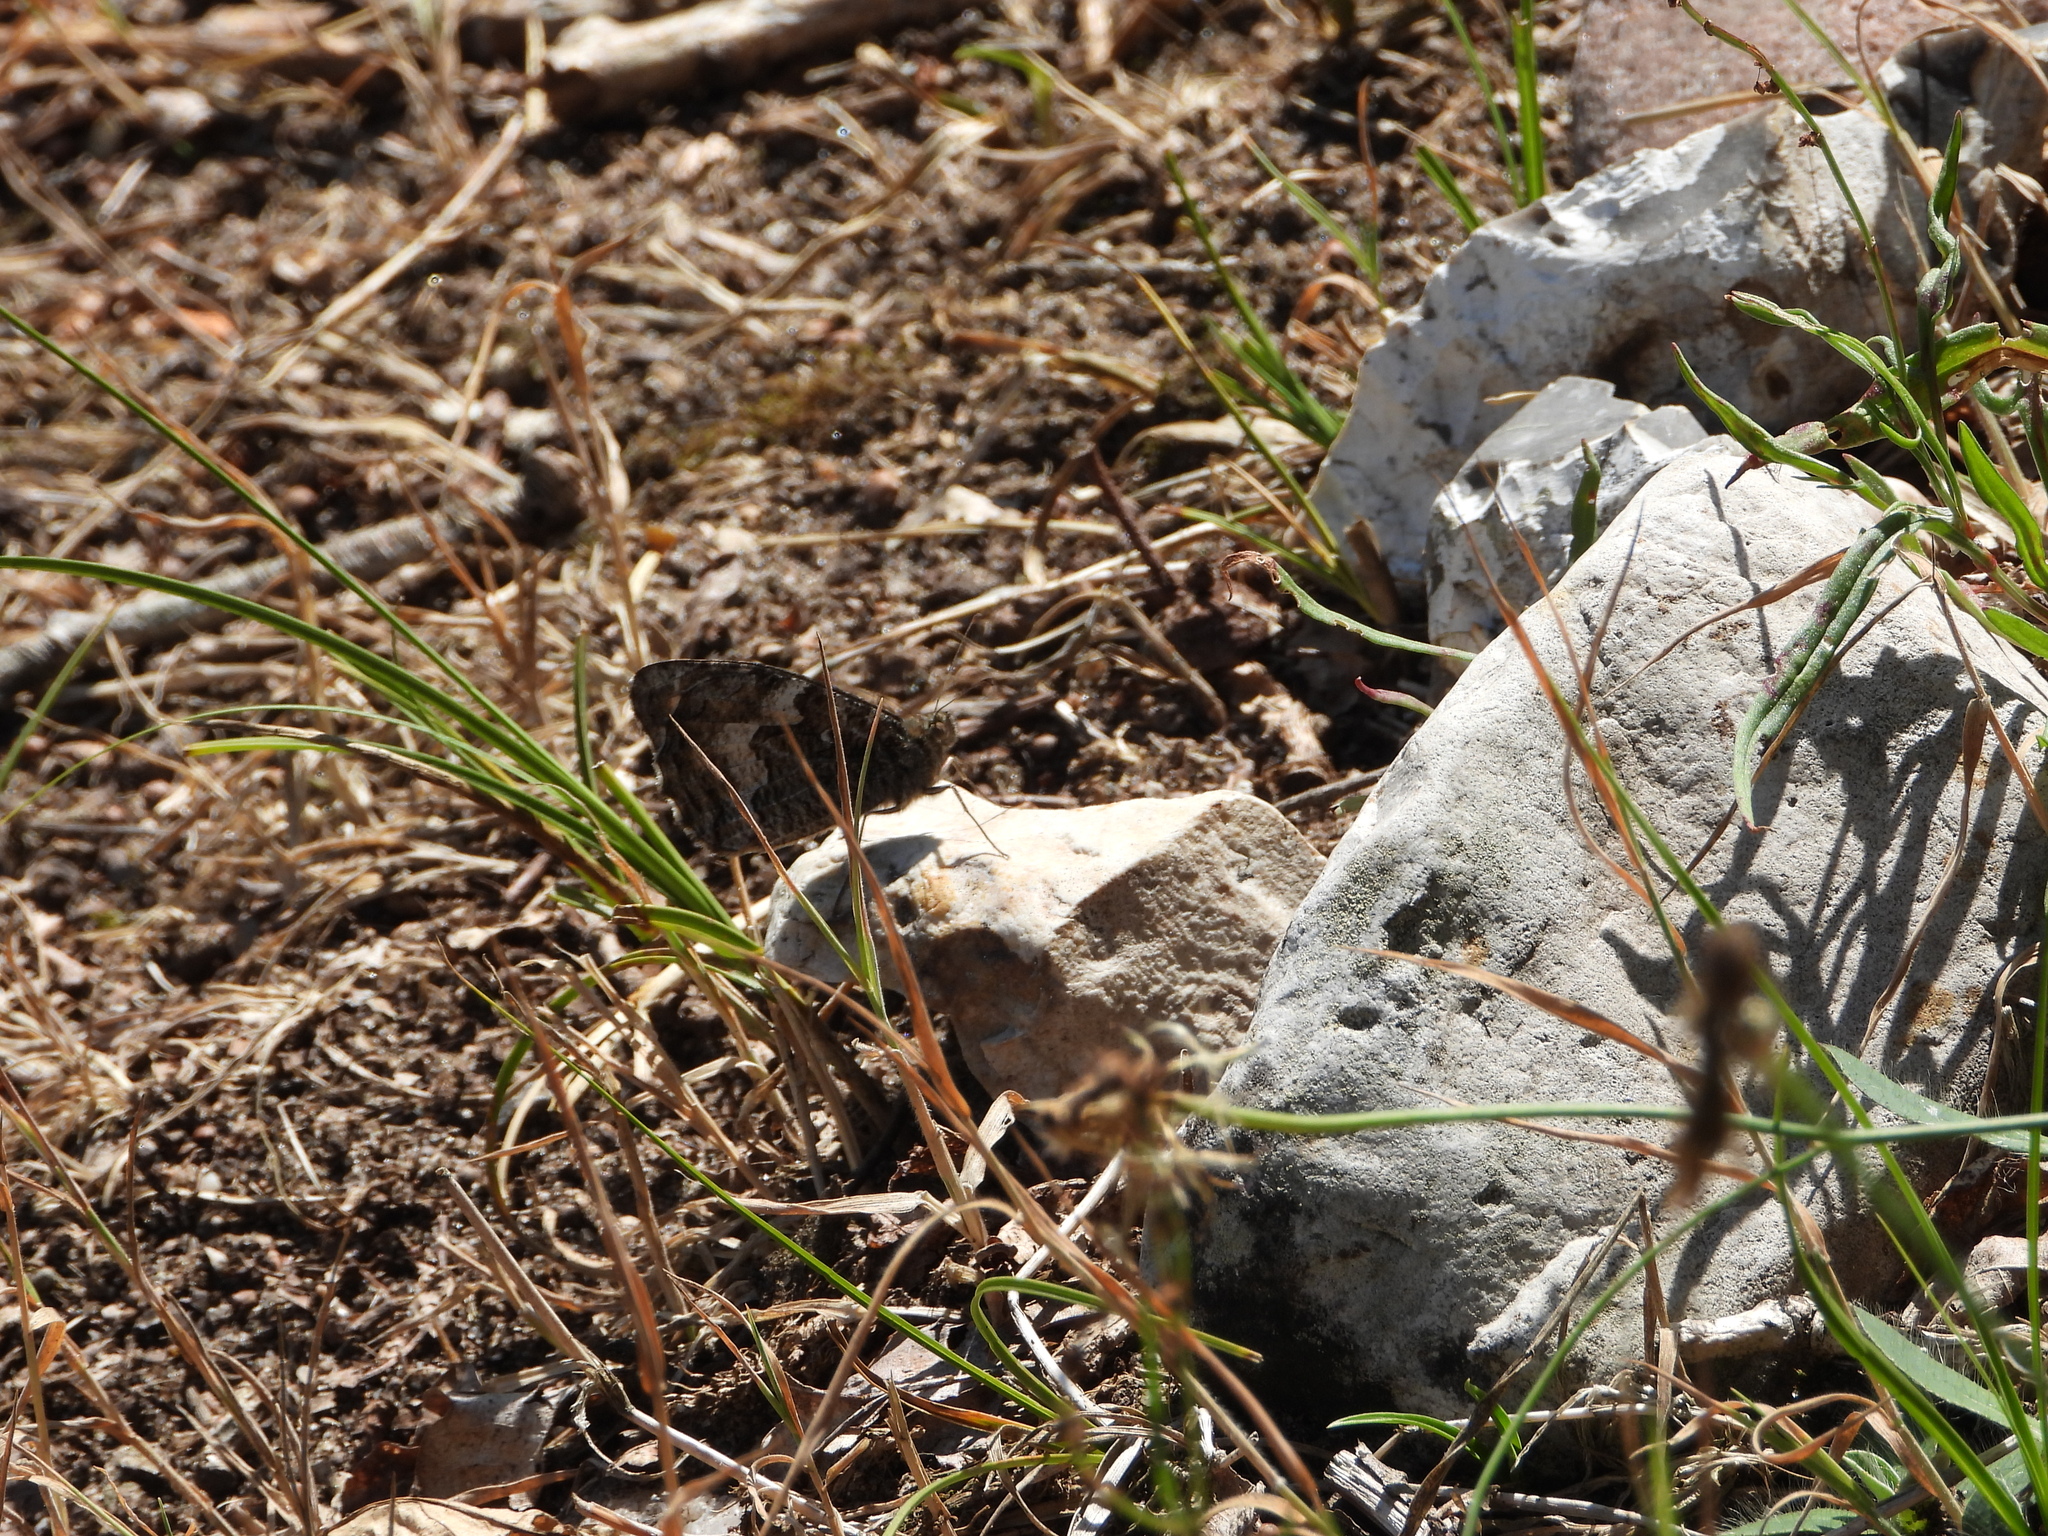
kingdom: Animalia
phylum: Arthropoda
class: Insecta
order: Lepidoptera
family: Nymphalidae
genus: Hipparchia
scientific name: Hipparchia semele
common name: Grayling
